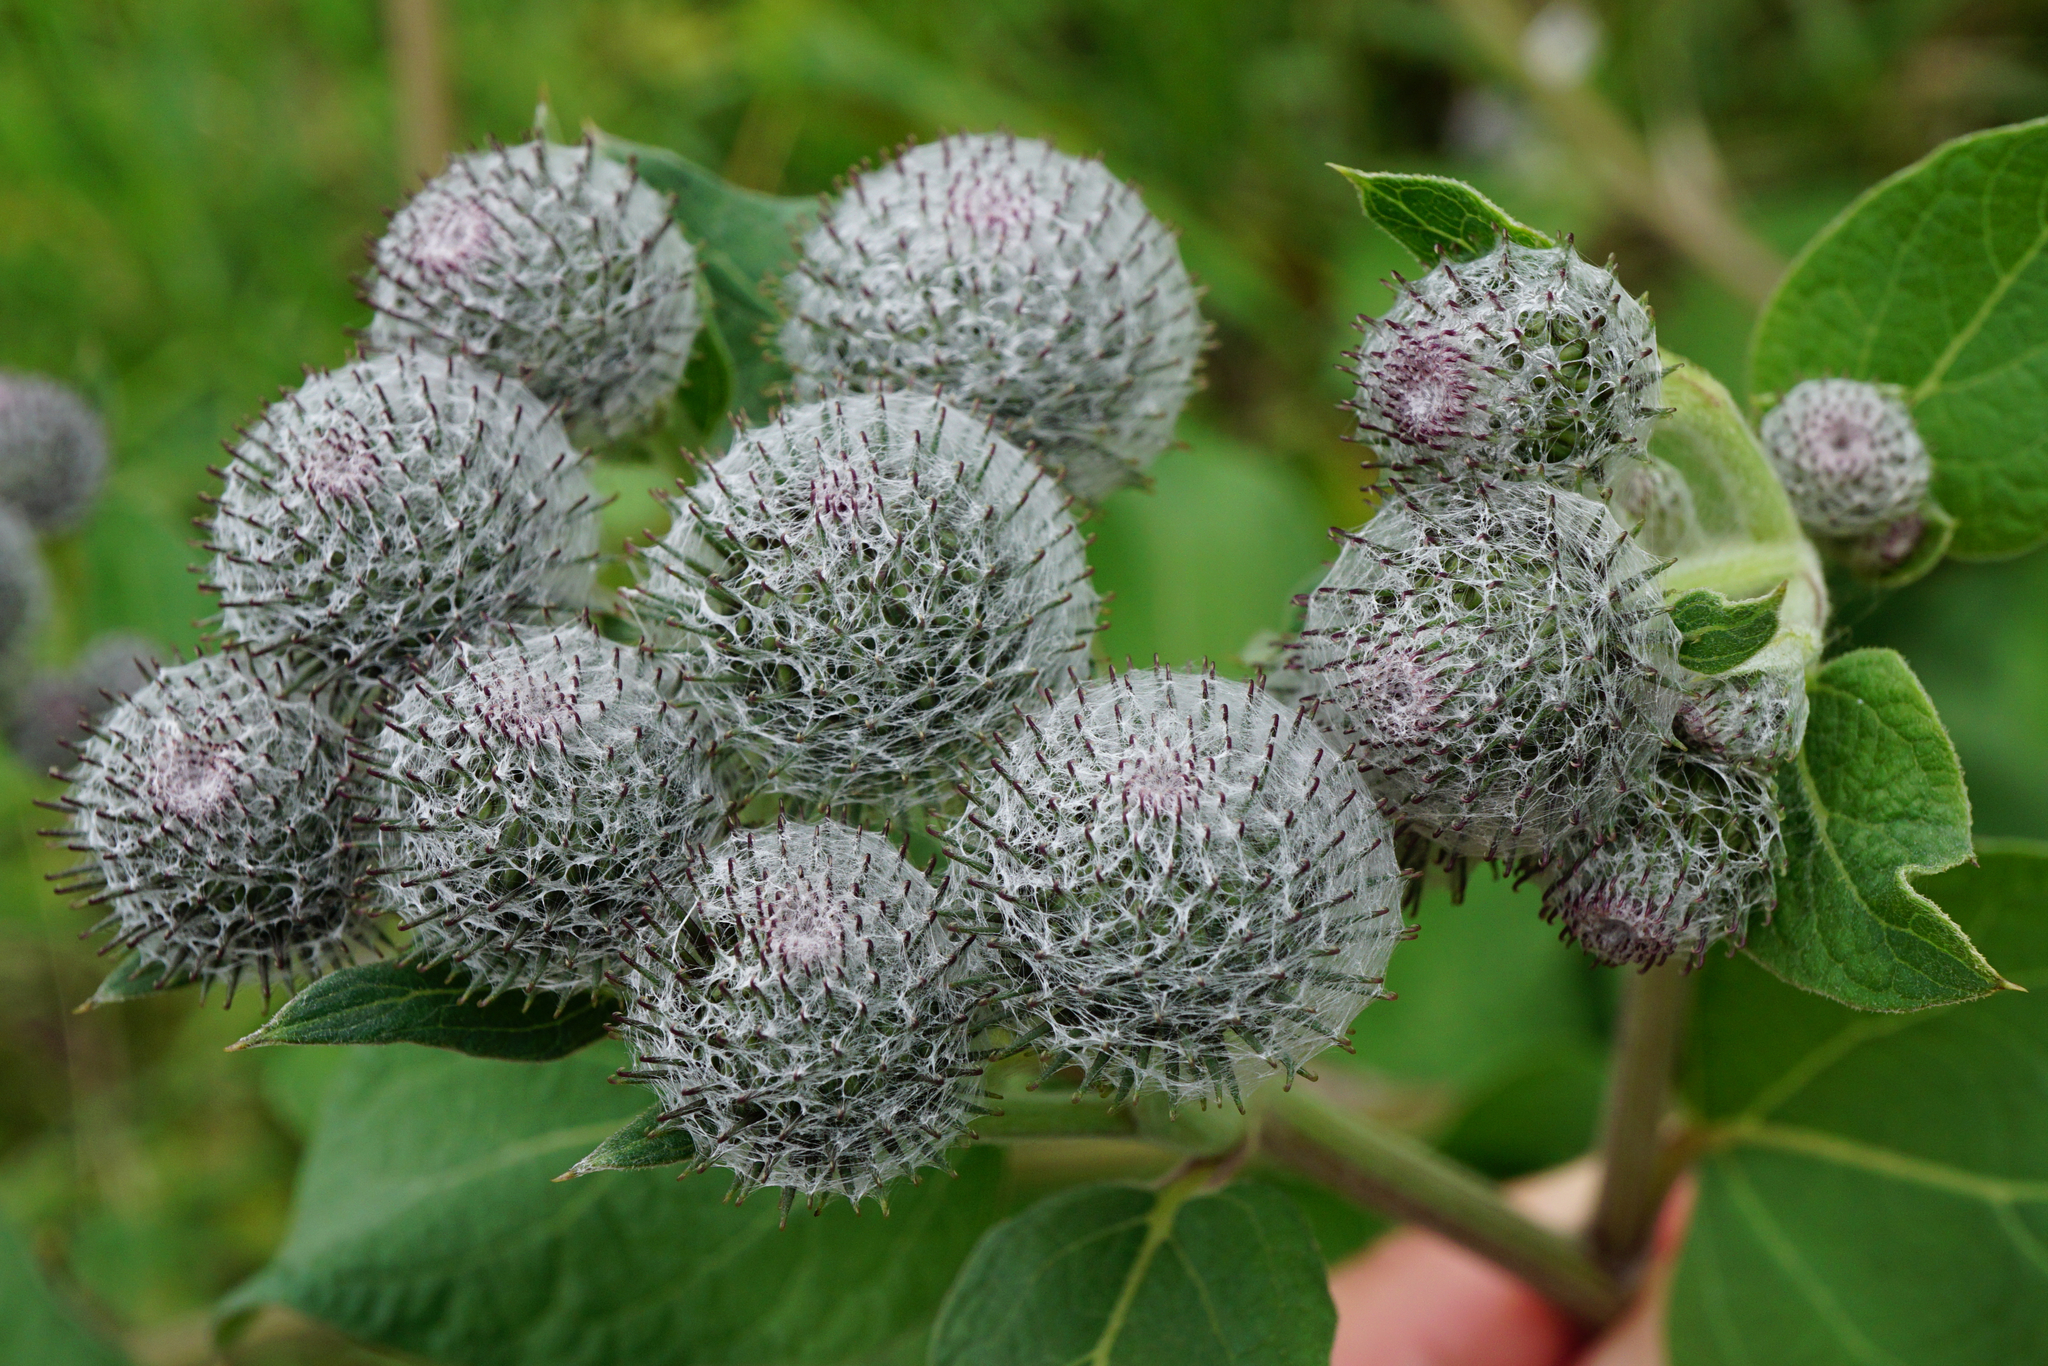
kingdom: Plantae
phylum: Tracheophyta
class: Magnoliopsida
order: Asterales
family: Asteraceae
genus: Arctium
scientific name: Arctium tomentosum
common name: Woolly burdock
